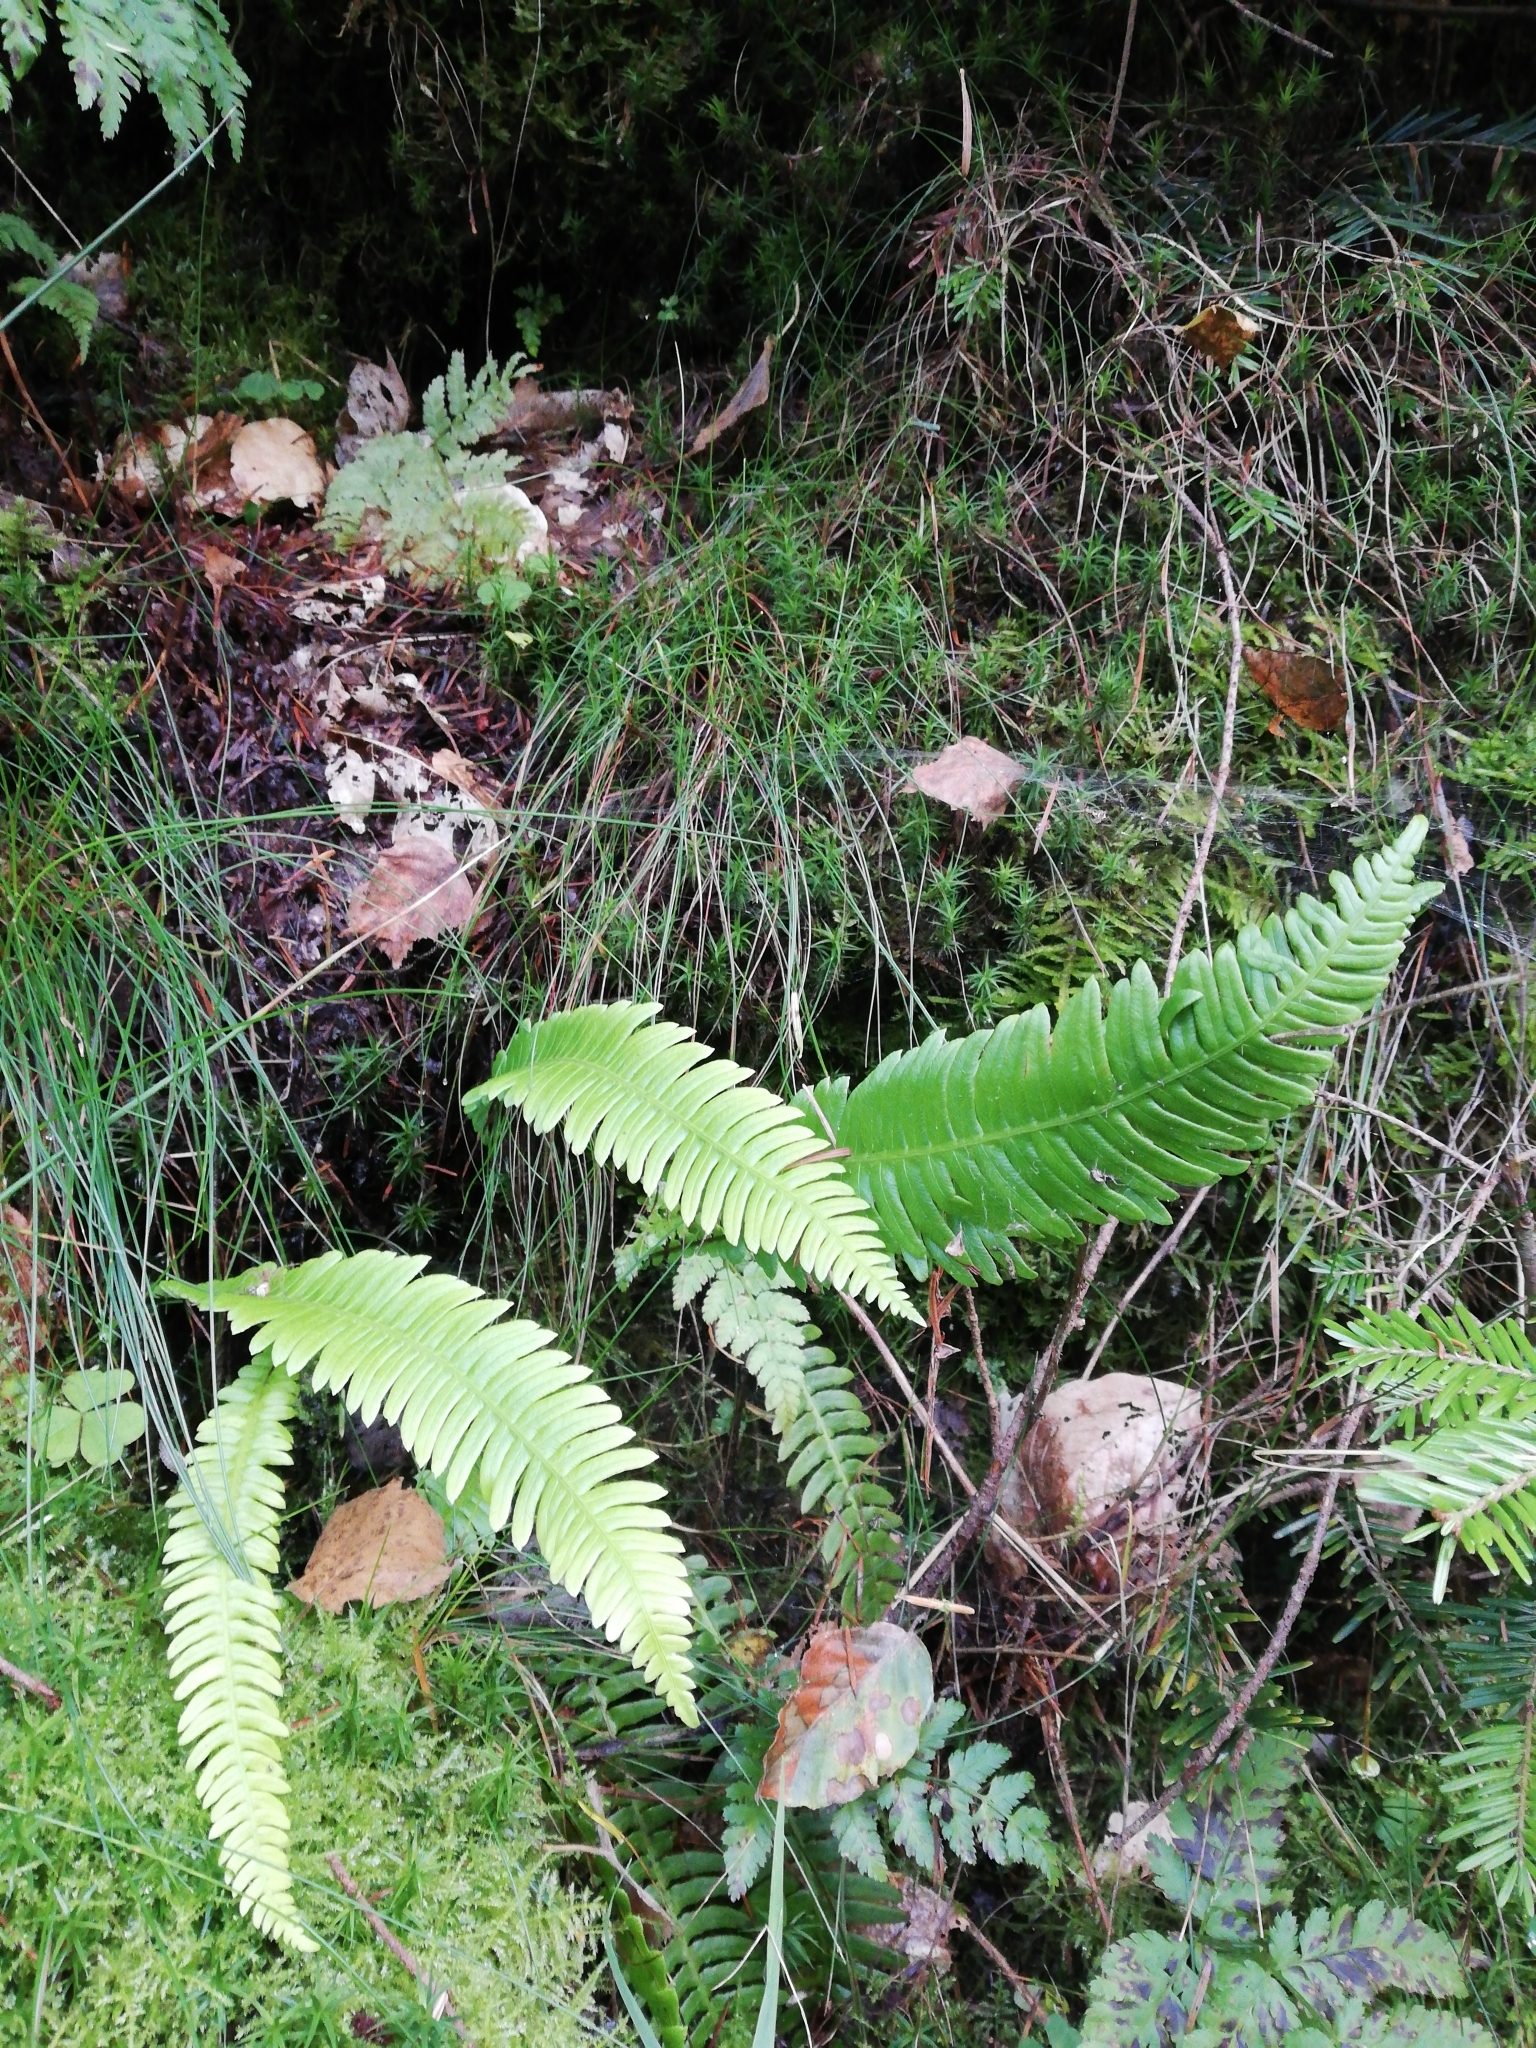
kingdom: Plantae
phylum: Tracheophyta
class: Polypodiopsida
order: Polypodiales
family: Blechnaceae
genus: Struthiopteris
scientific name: Struthiopteris spicant
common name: Deer fern
